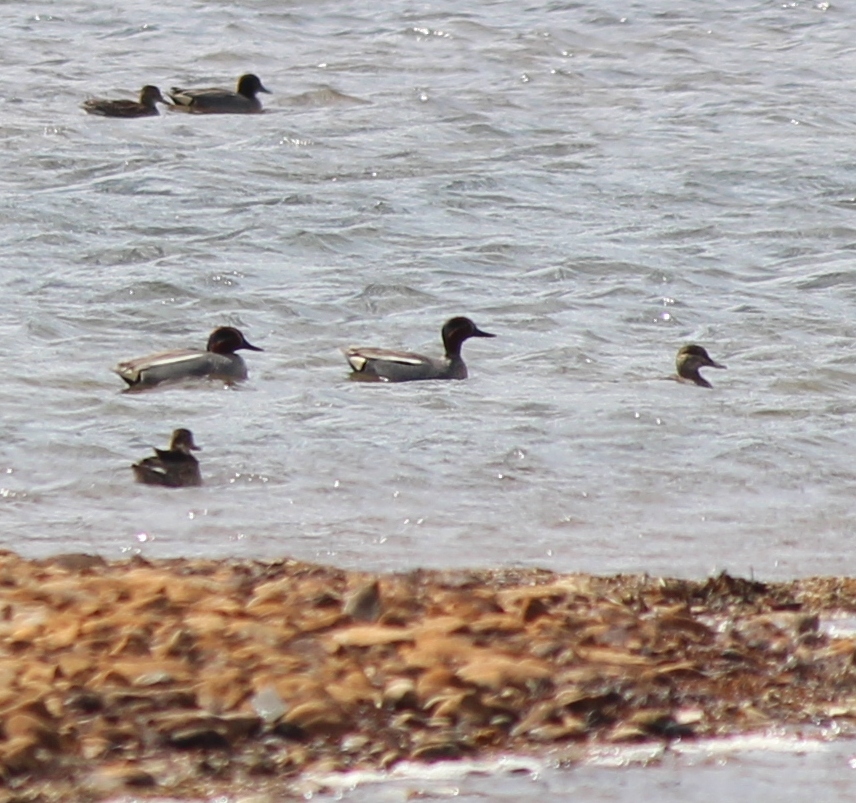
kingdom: Animalia
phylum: Chordata
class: Aves
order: Anseriformes
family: Anatidae
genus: Anas
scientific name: Anas crecca
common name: Eurasian teal
